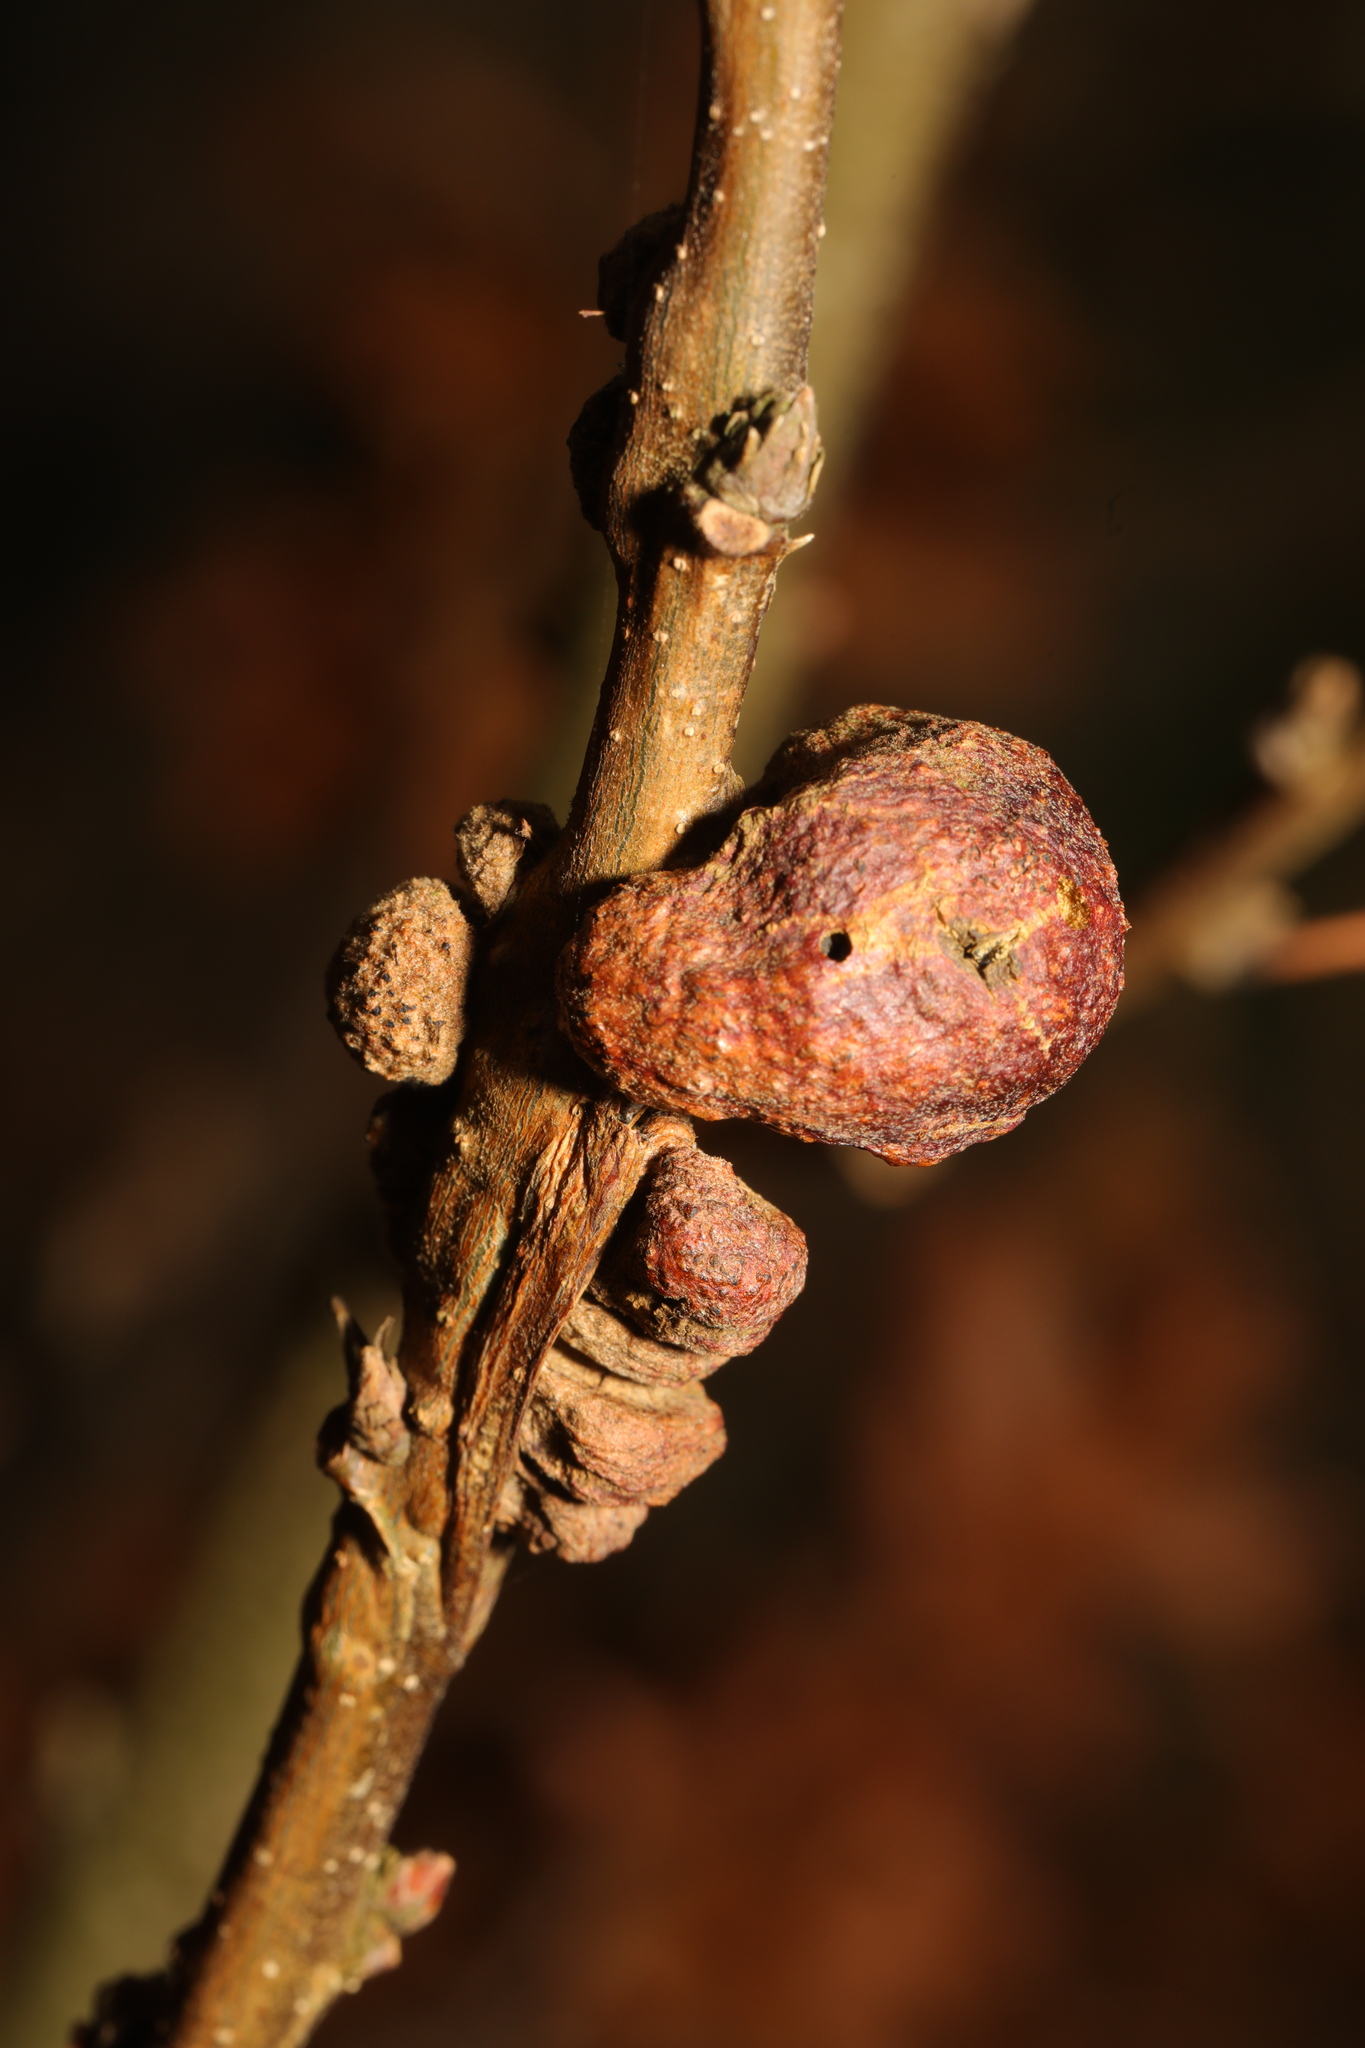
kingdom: Animalia
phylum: Arthropoda
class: Insecta
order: Hymenoptera
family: Cynipidae
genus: Aphelonyx
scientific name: Aphelonyx cerricola
